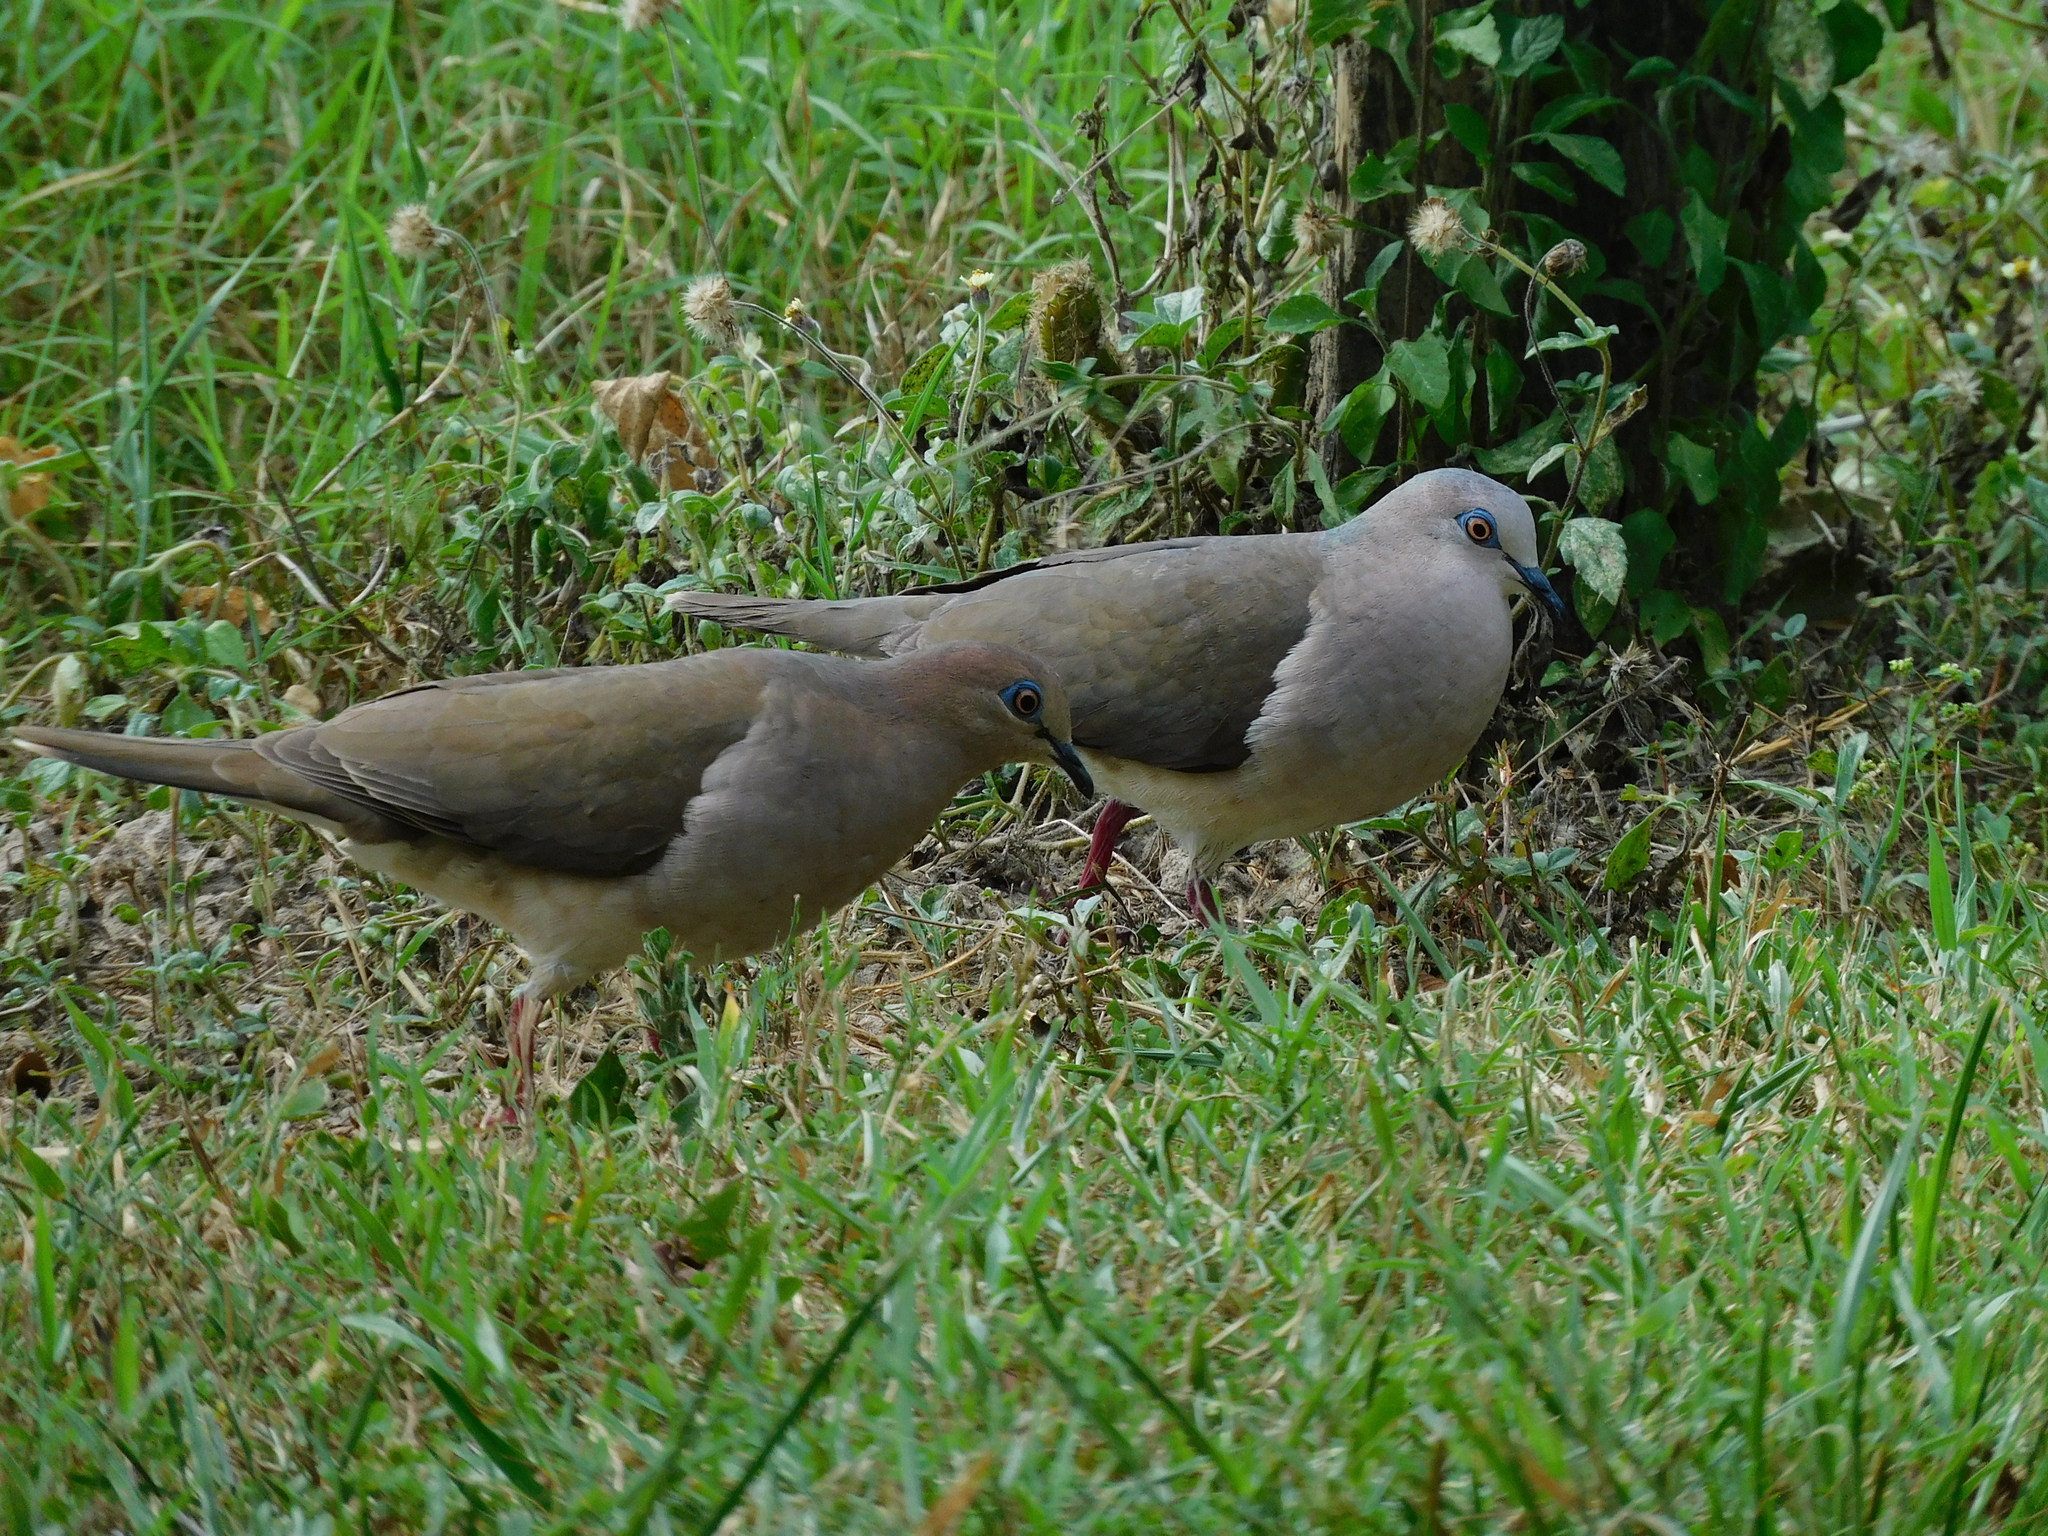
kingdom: Animalia
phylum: Chordata
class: Aves
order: Columbiformes
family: Columbidae
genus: Leptotila
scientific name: Leptotila verreauxi
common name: White-tipped dove
